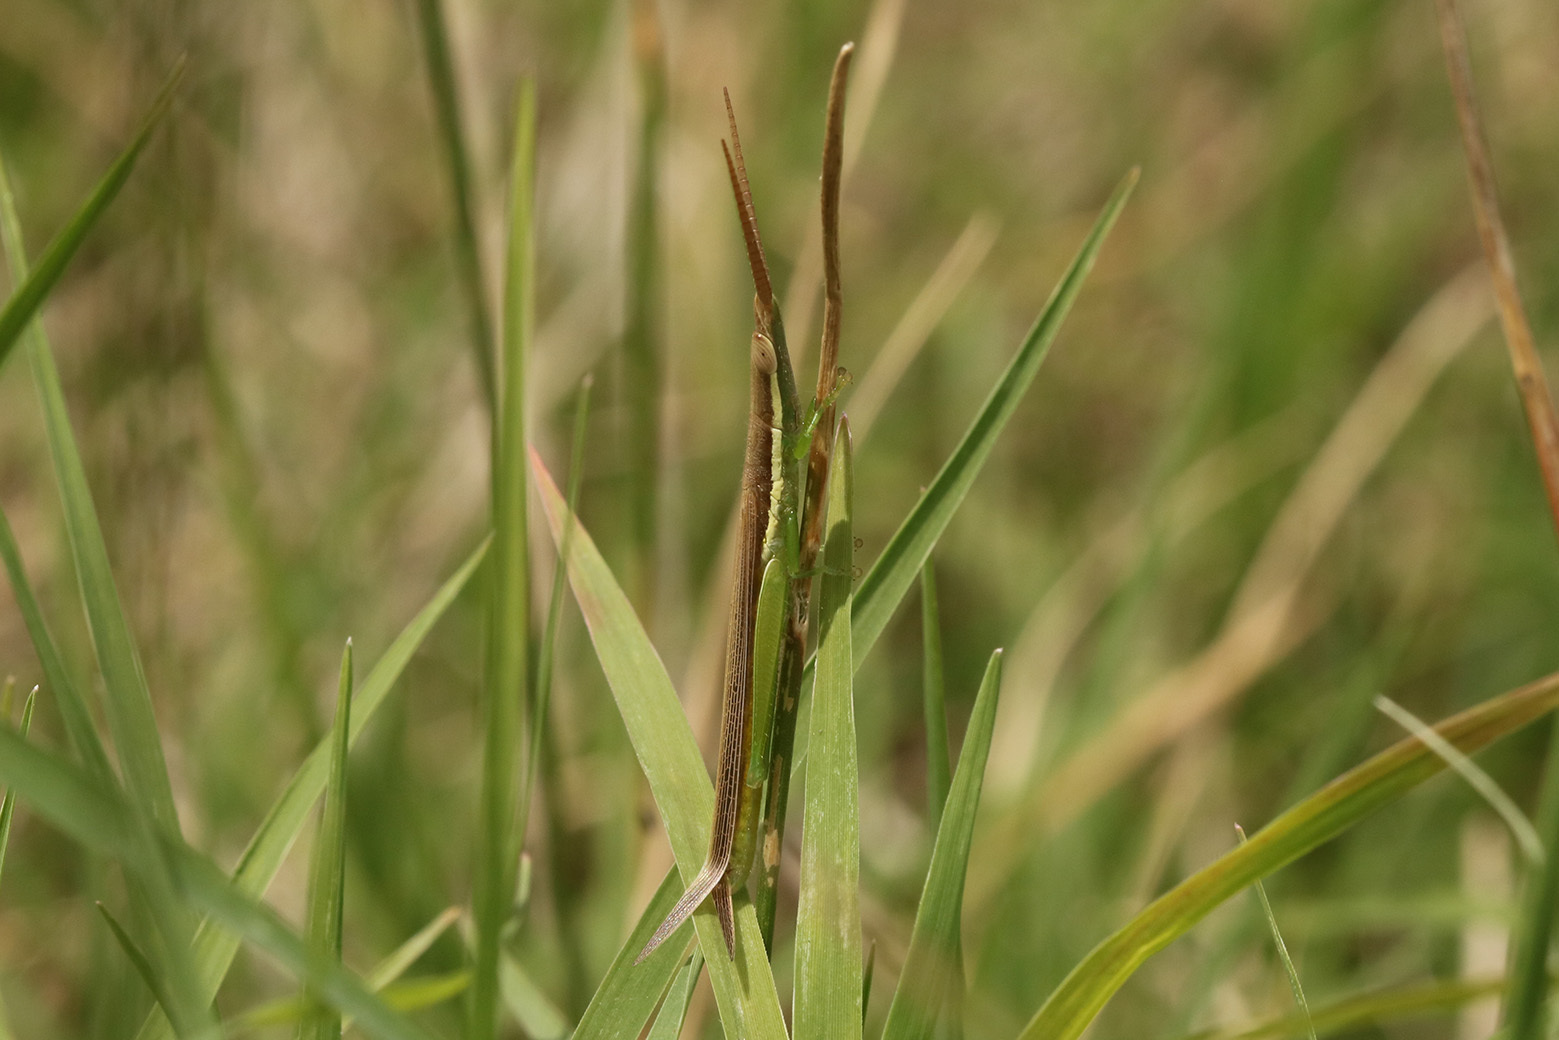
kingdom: Animalia
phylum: Arthropoda
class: Insecta
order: Orthoptera
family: Acrididae
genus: Leptysma
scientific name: Leptysma argentina
